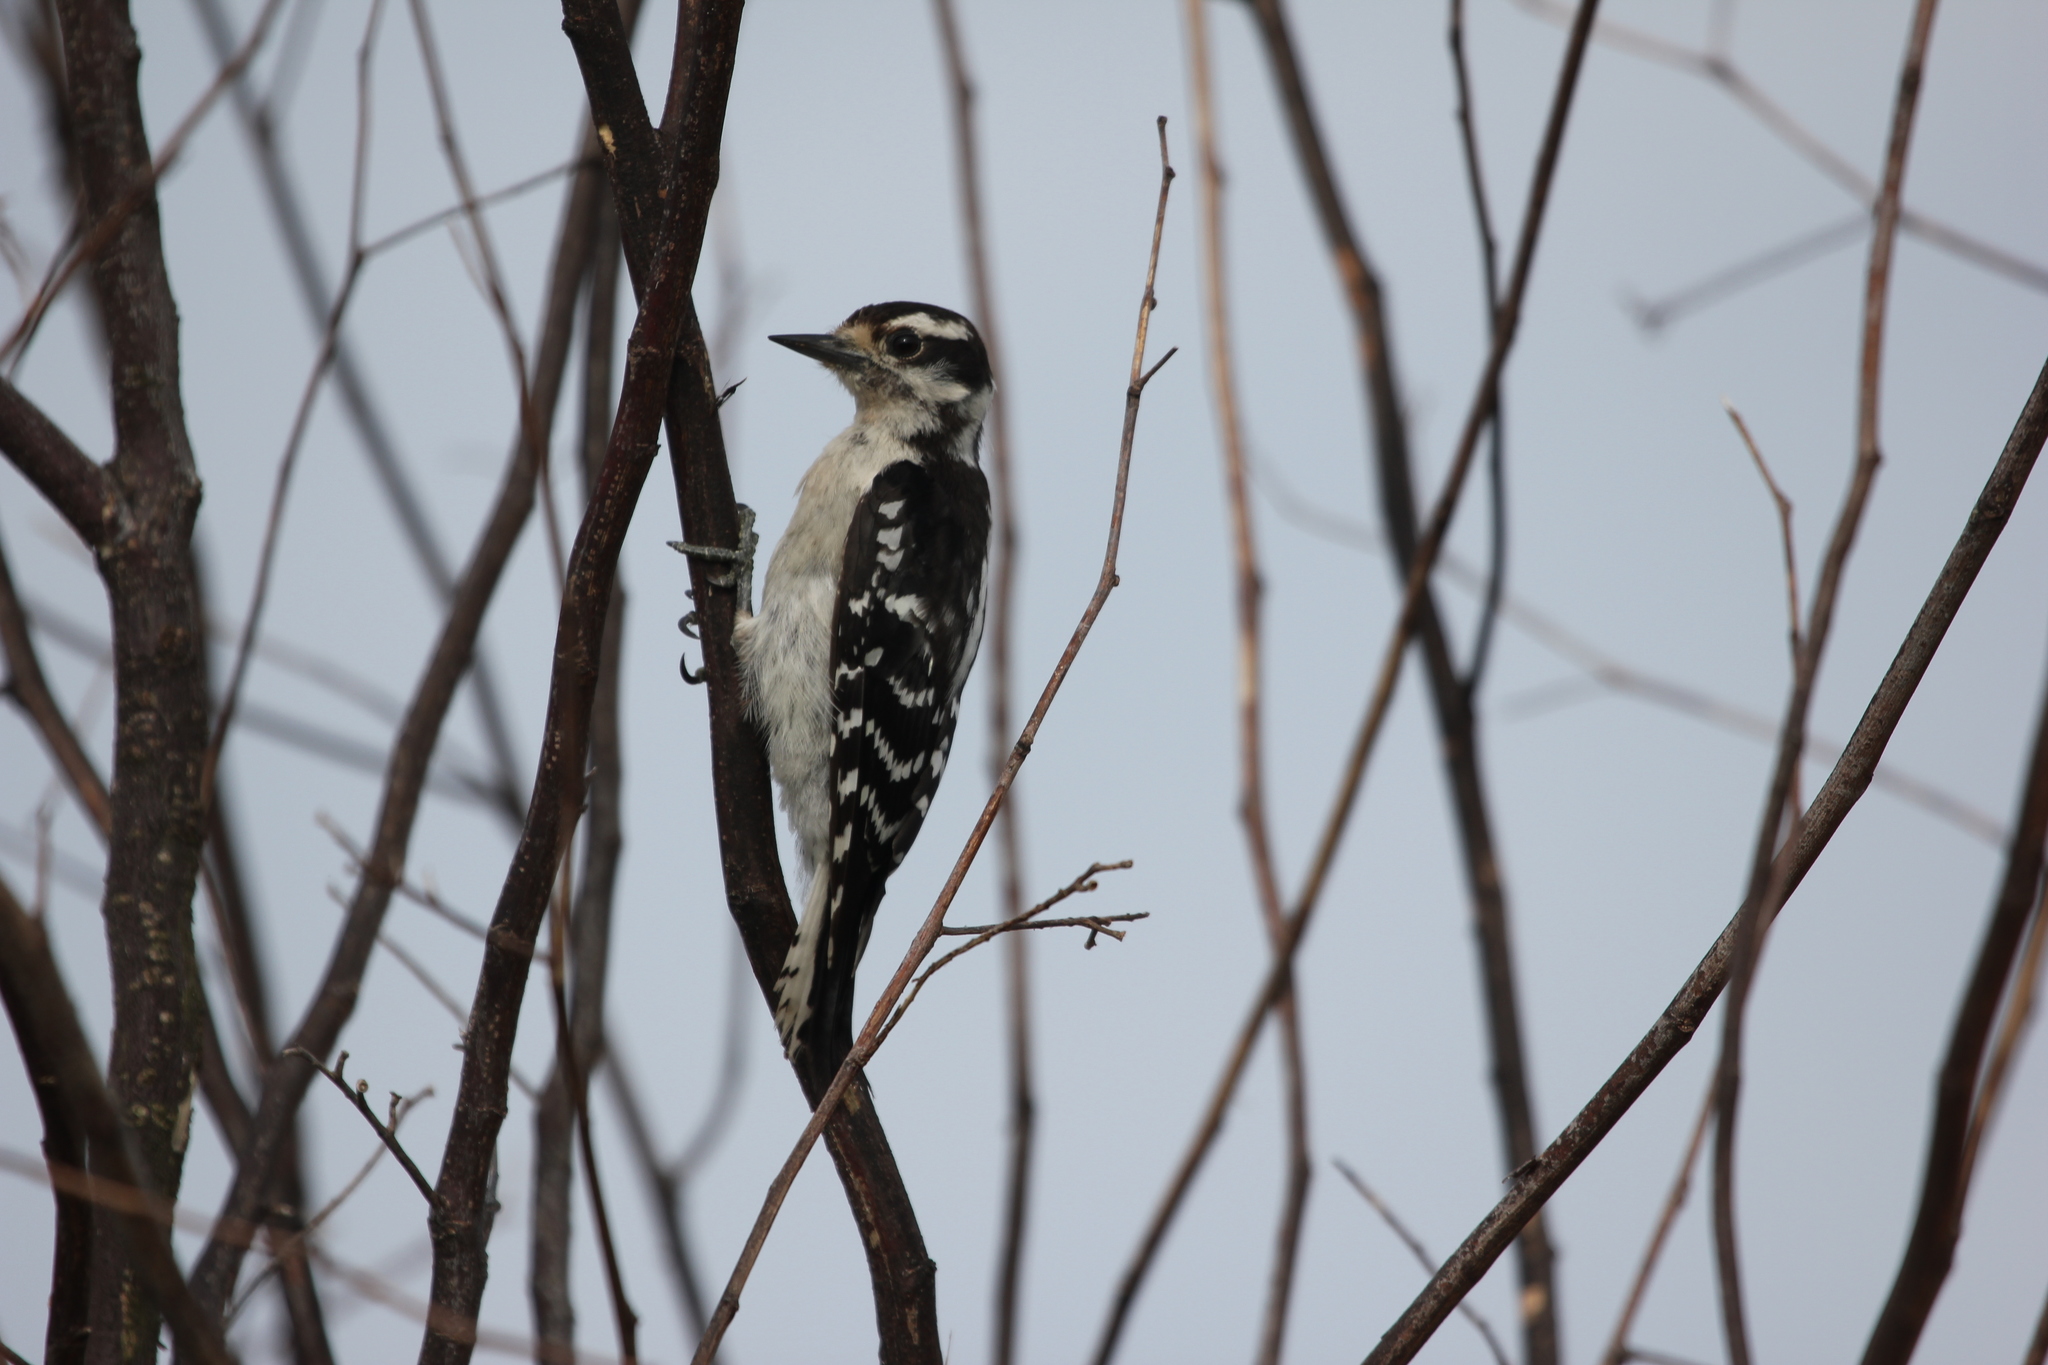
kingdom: Animalia
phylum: Chordata
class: Aves
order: Piciformes
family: Picidae
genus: Dryobates
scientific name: Dryobates pubescens
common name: Downy woodpecker
